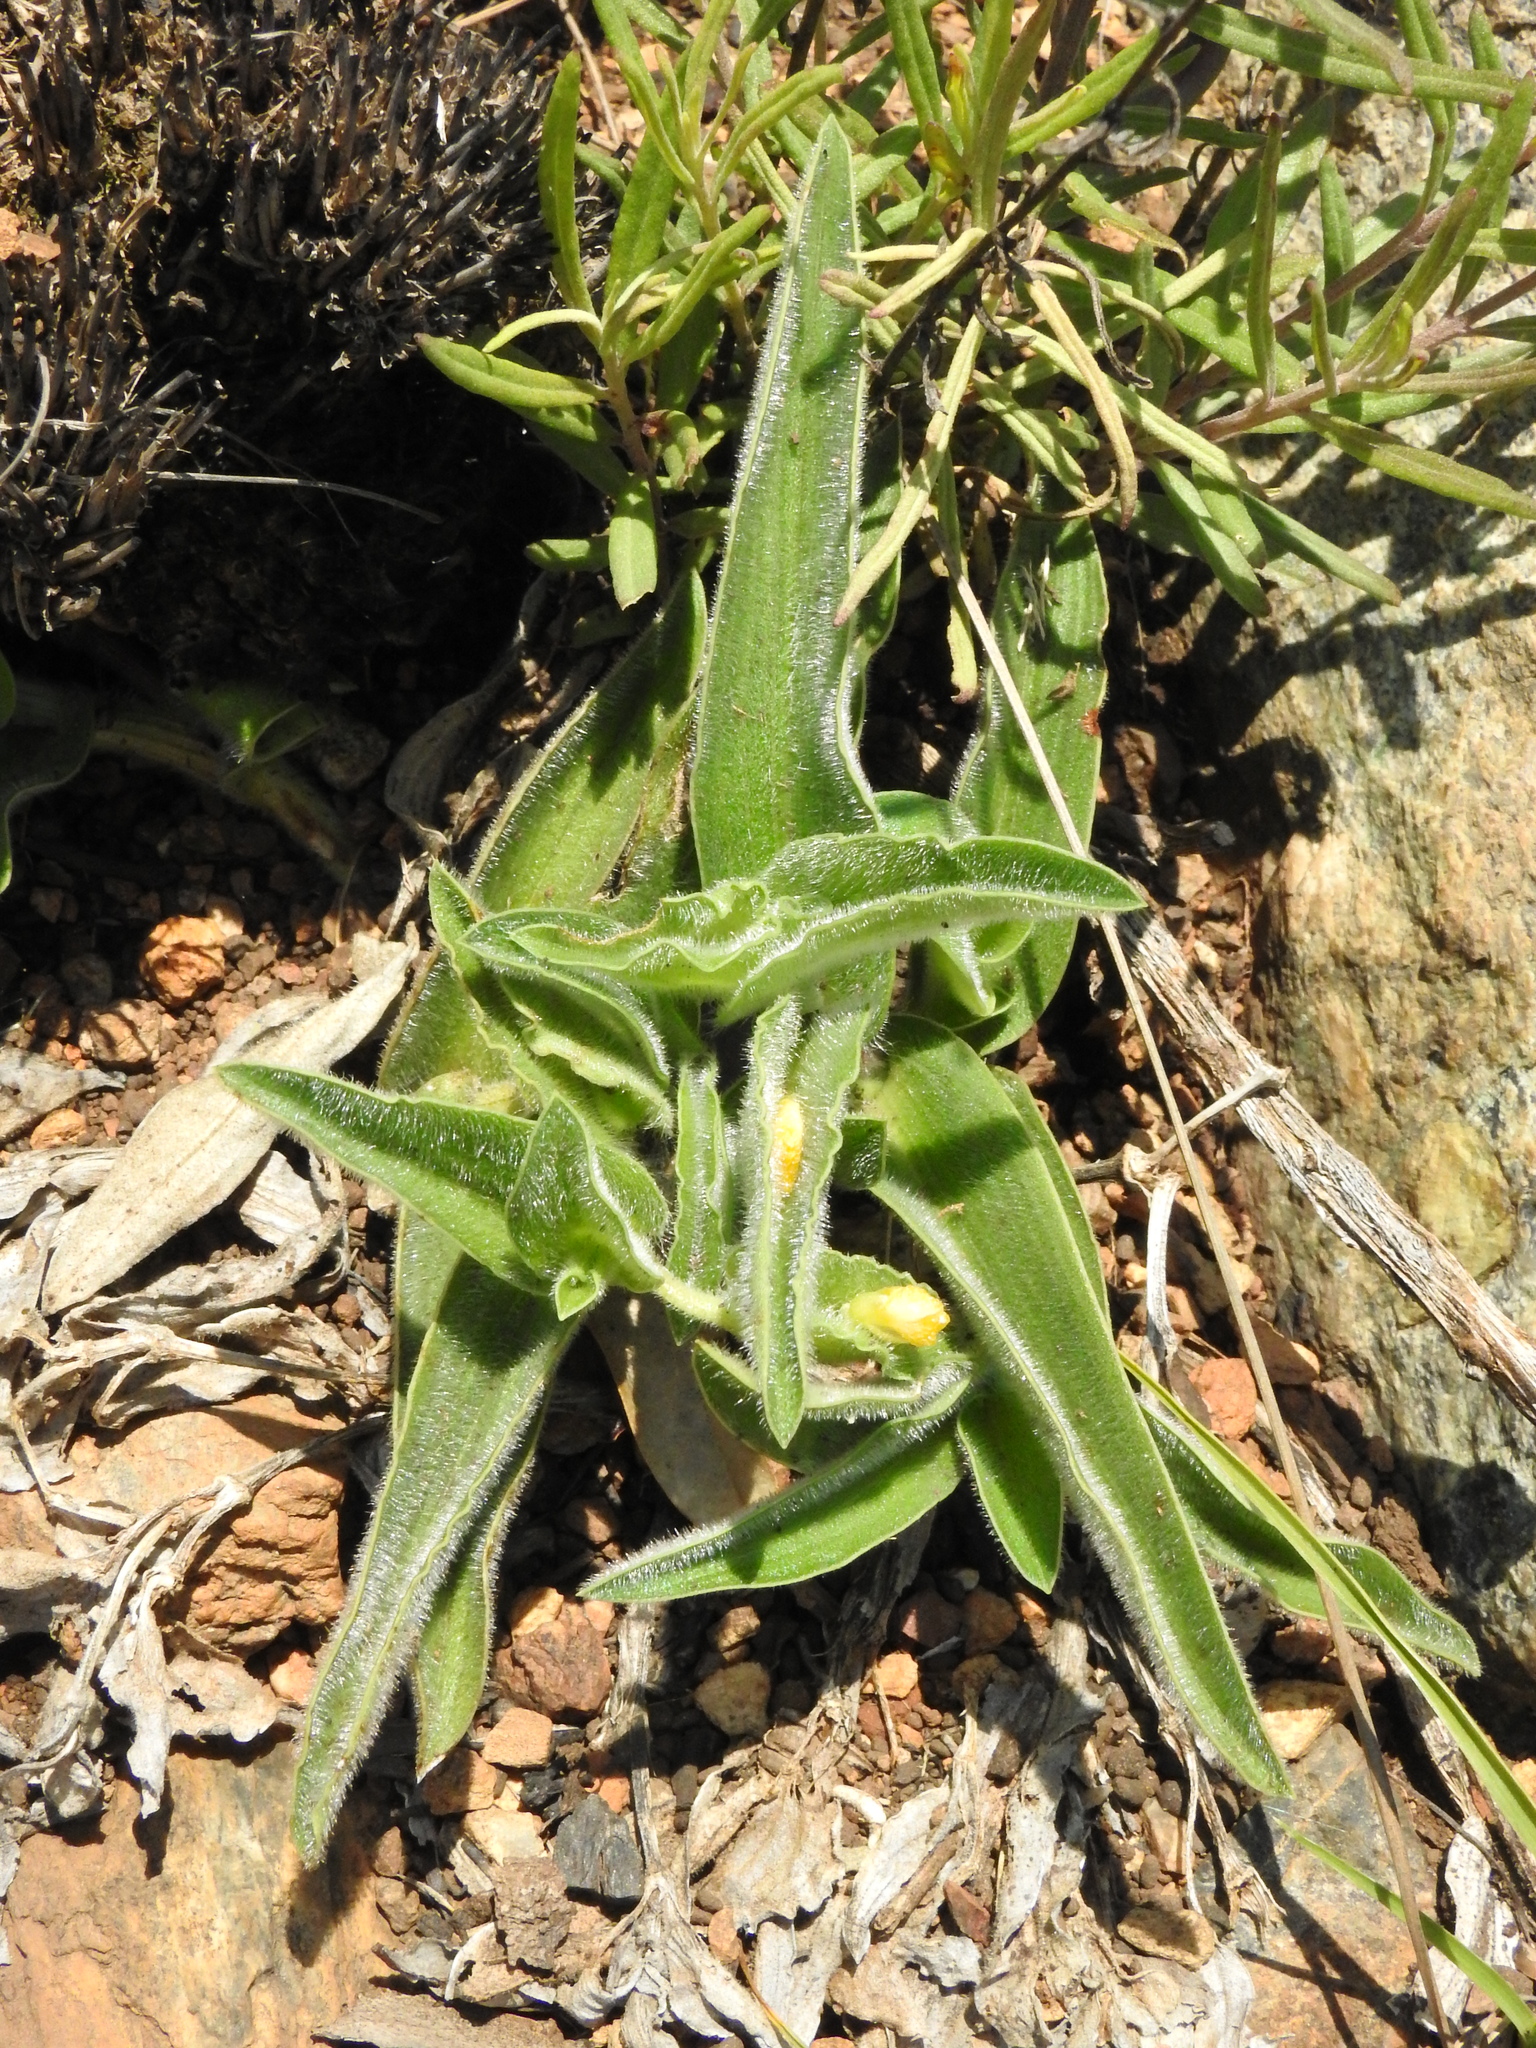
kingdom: Plantae
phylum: Tracheophyta
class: Liliopsida
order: Commelinales
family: Commelinaceae
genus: Commelina
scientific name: Commelina africana
